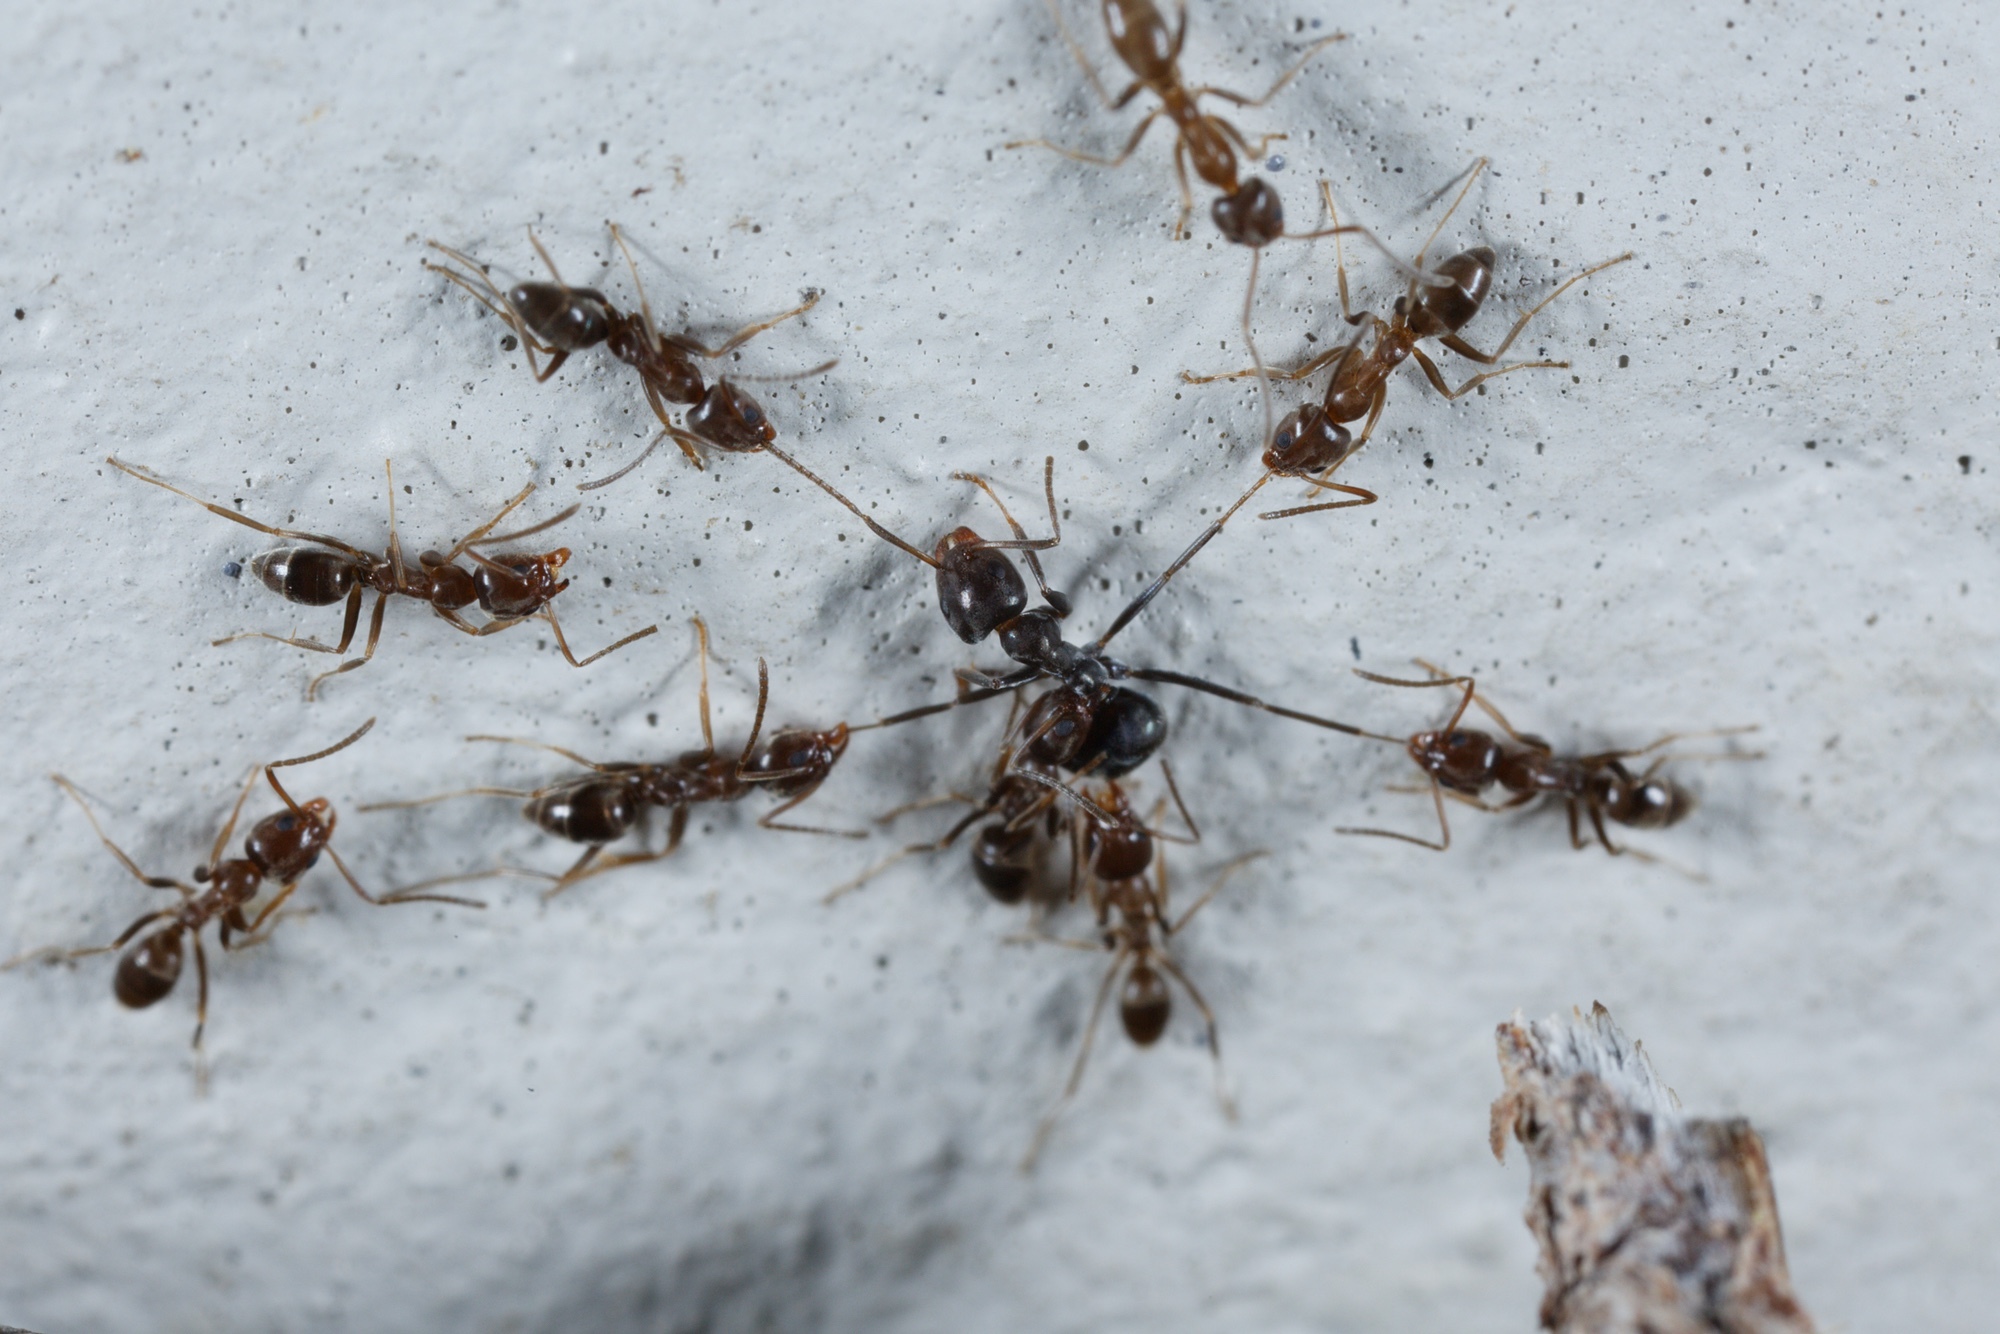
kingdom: Animalia
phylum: Arthropoda
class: Insecta
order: Hymenoptera
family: Formicidae
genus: Linepithema
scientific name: Linepithema humile
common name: Argentine ant
